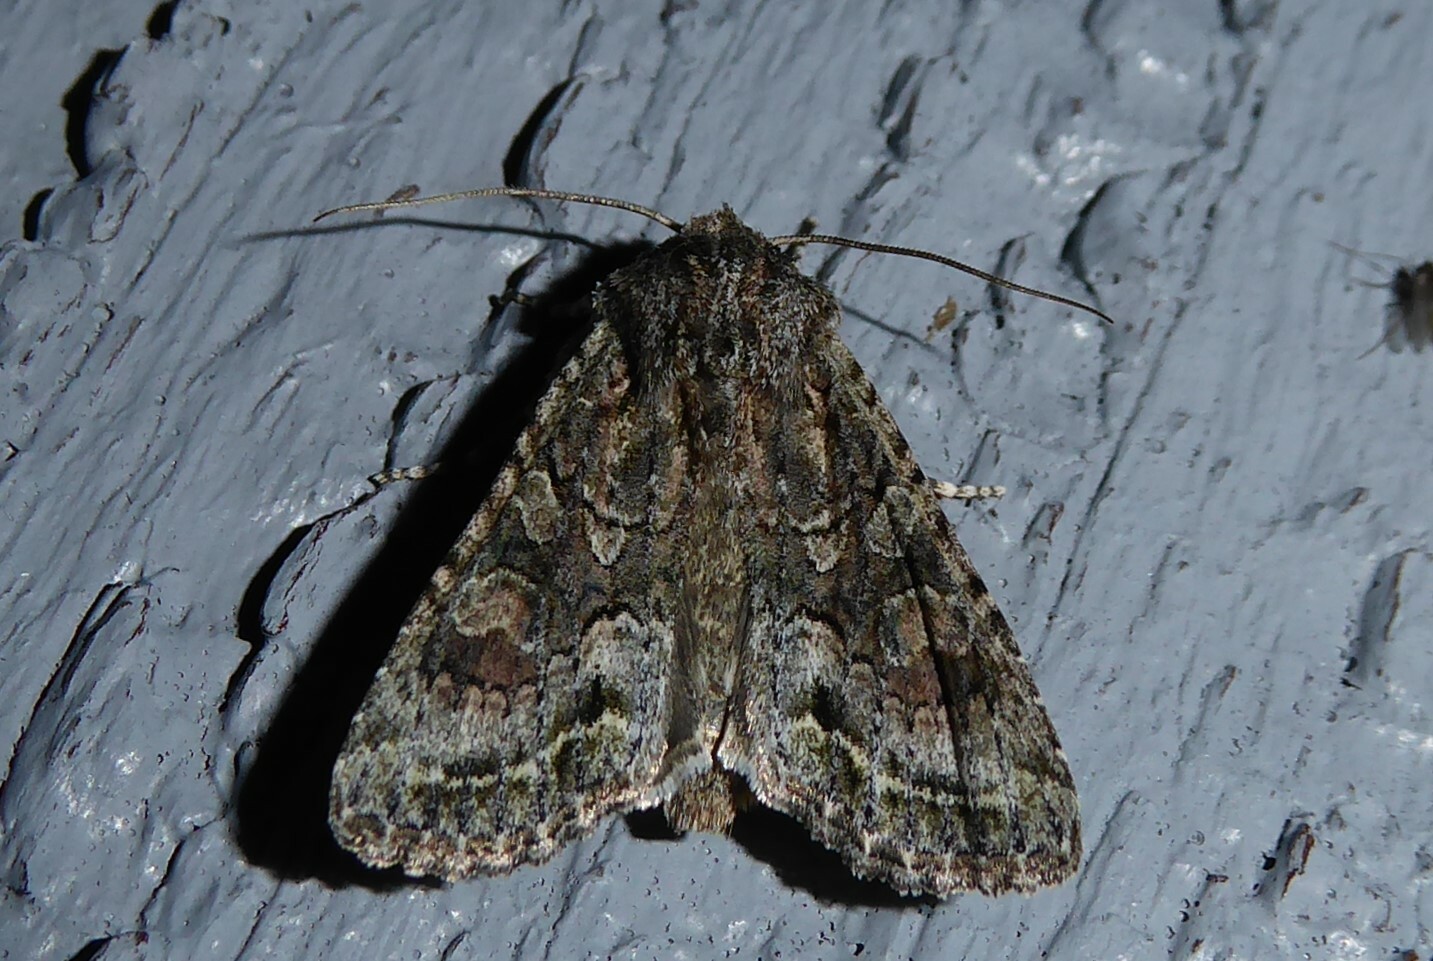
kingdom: Animalia
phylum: Arthropoda
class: Insecta
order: Lepidoptera
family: Noctuidae
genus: Ichneutica
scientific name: Ichneutica mutans
